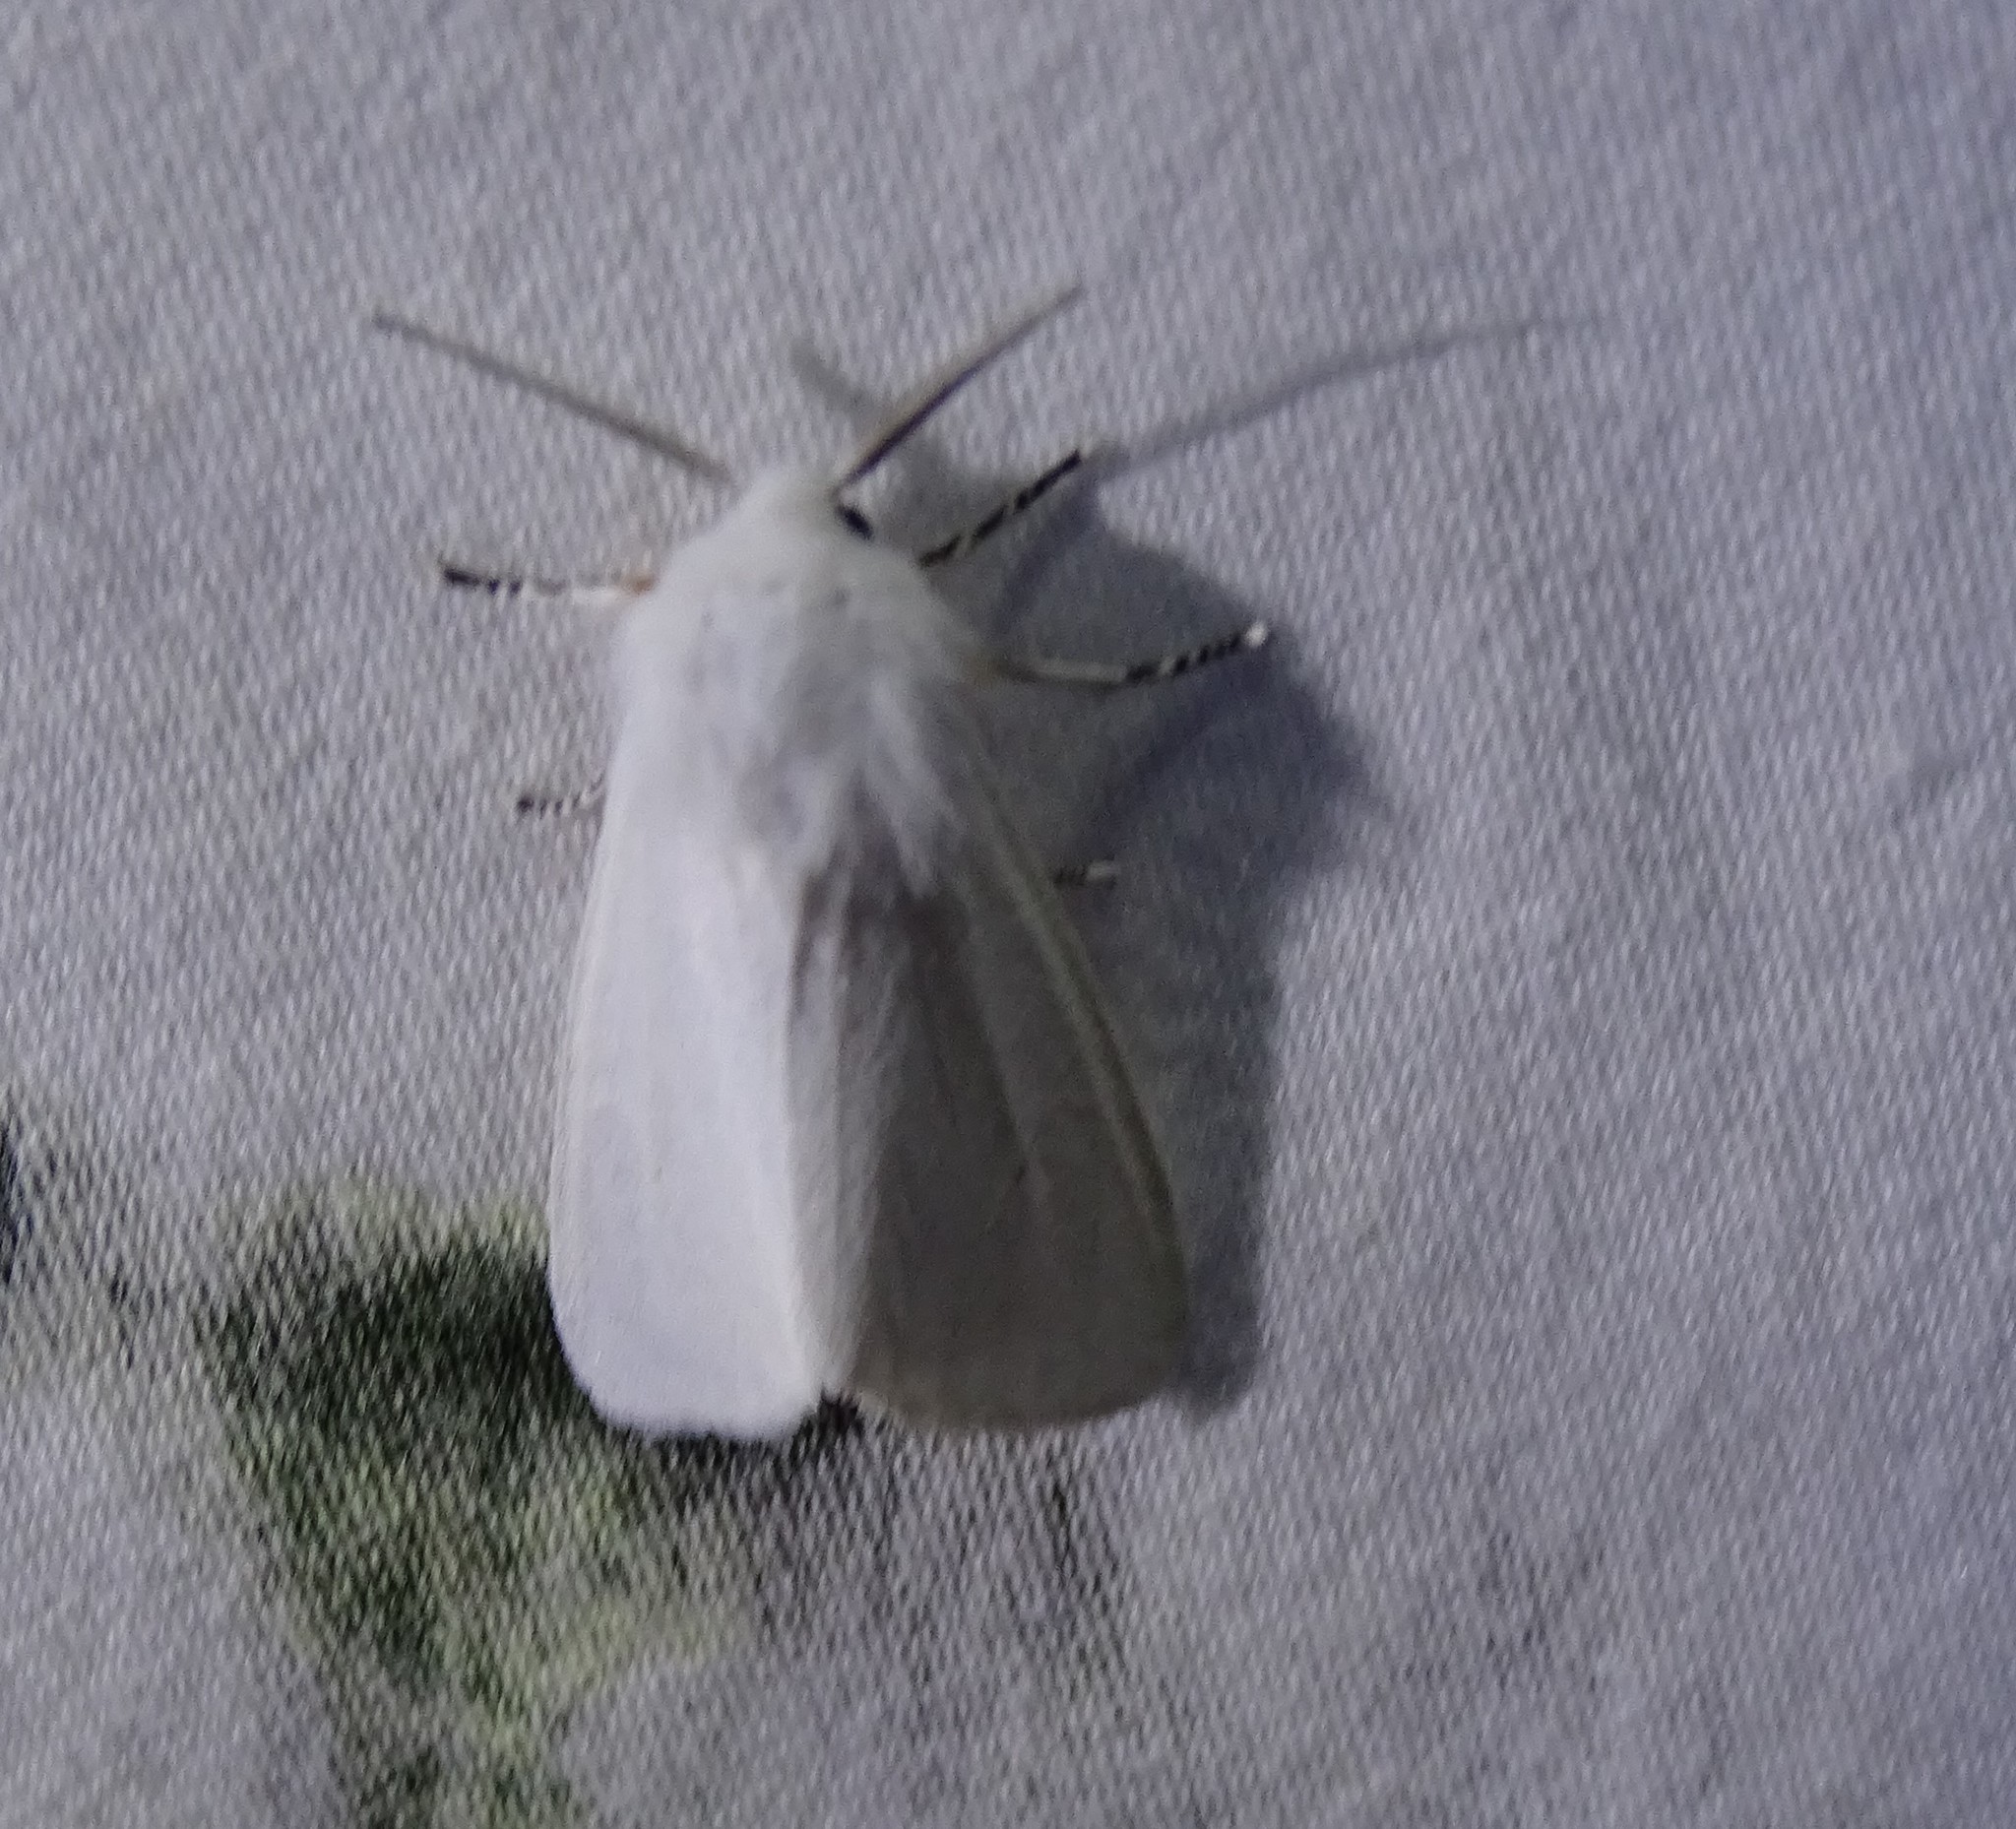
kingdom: Animalia
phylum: Arthropoda
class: Insecta
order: Lepidoptera
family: Erebidae
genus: Hyphantria
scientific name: Hyphantria cunea
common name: American white moth
